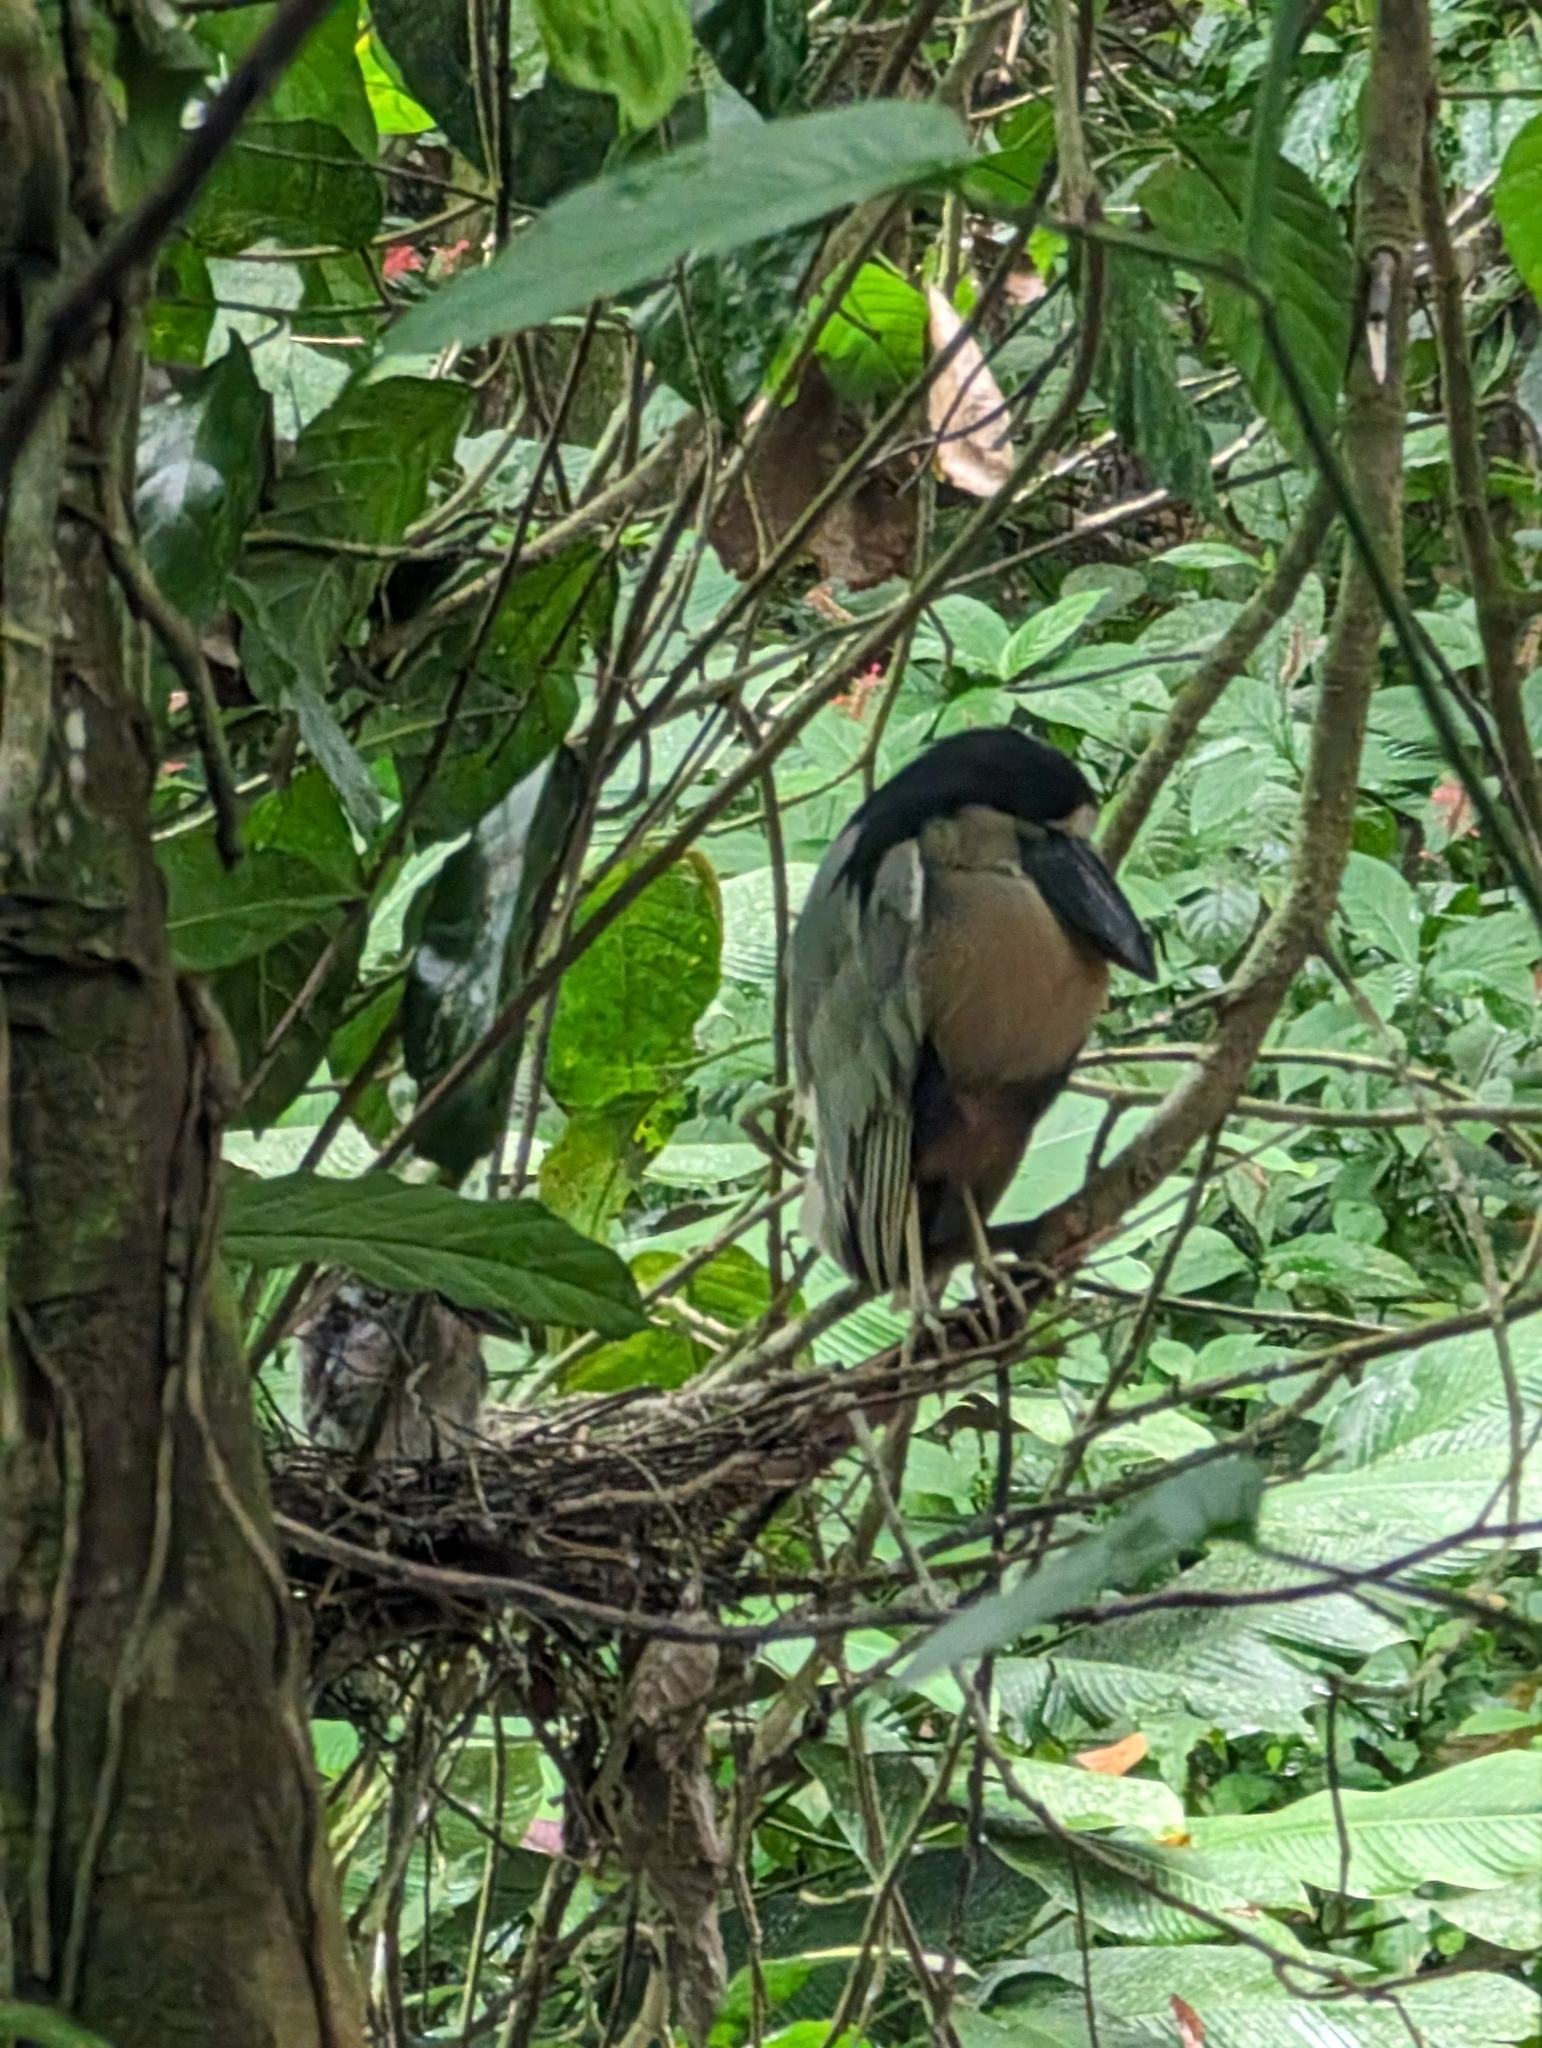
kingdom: Animalia
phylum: Chordata
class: Aves
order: Pelecaniformes
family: Ardeidae
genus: Cochlearius
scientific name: Cochlearius cochlearius
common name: Boat-billed heron
